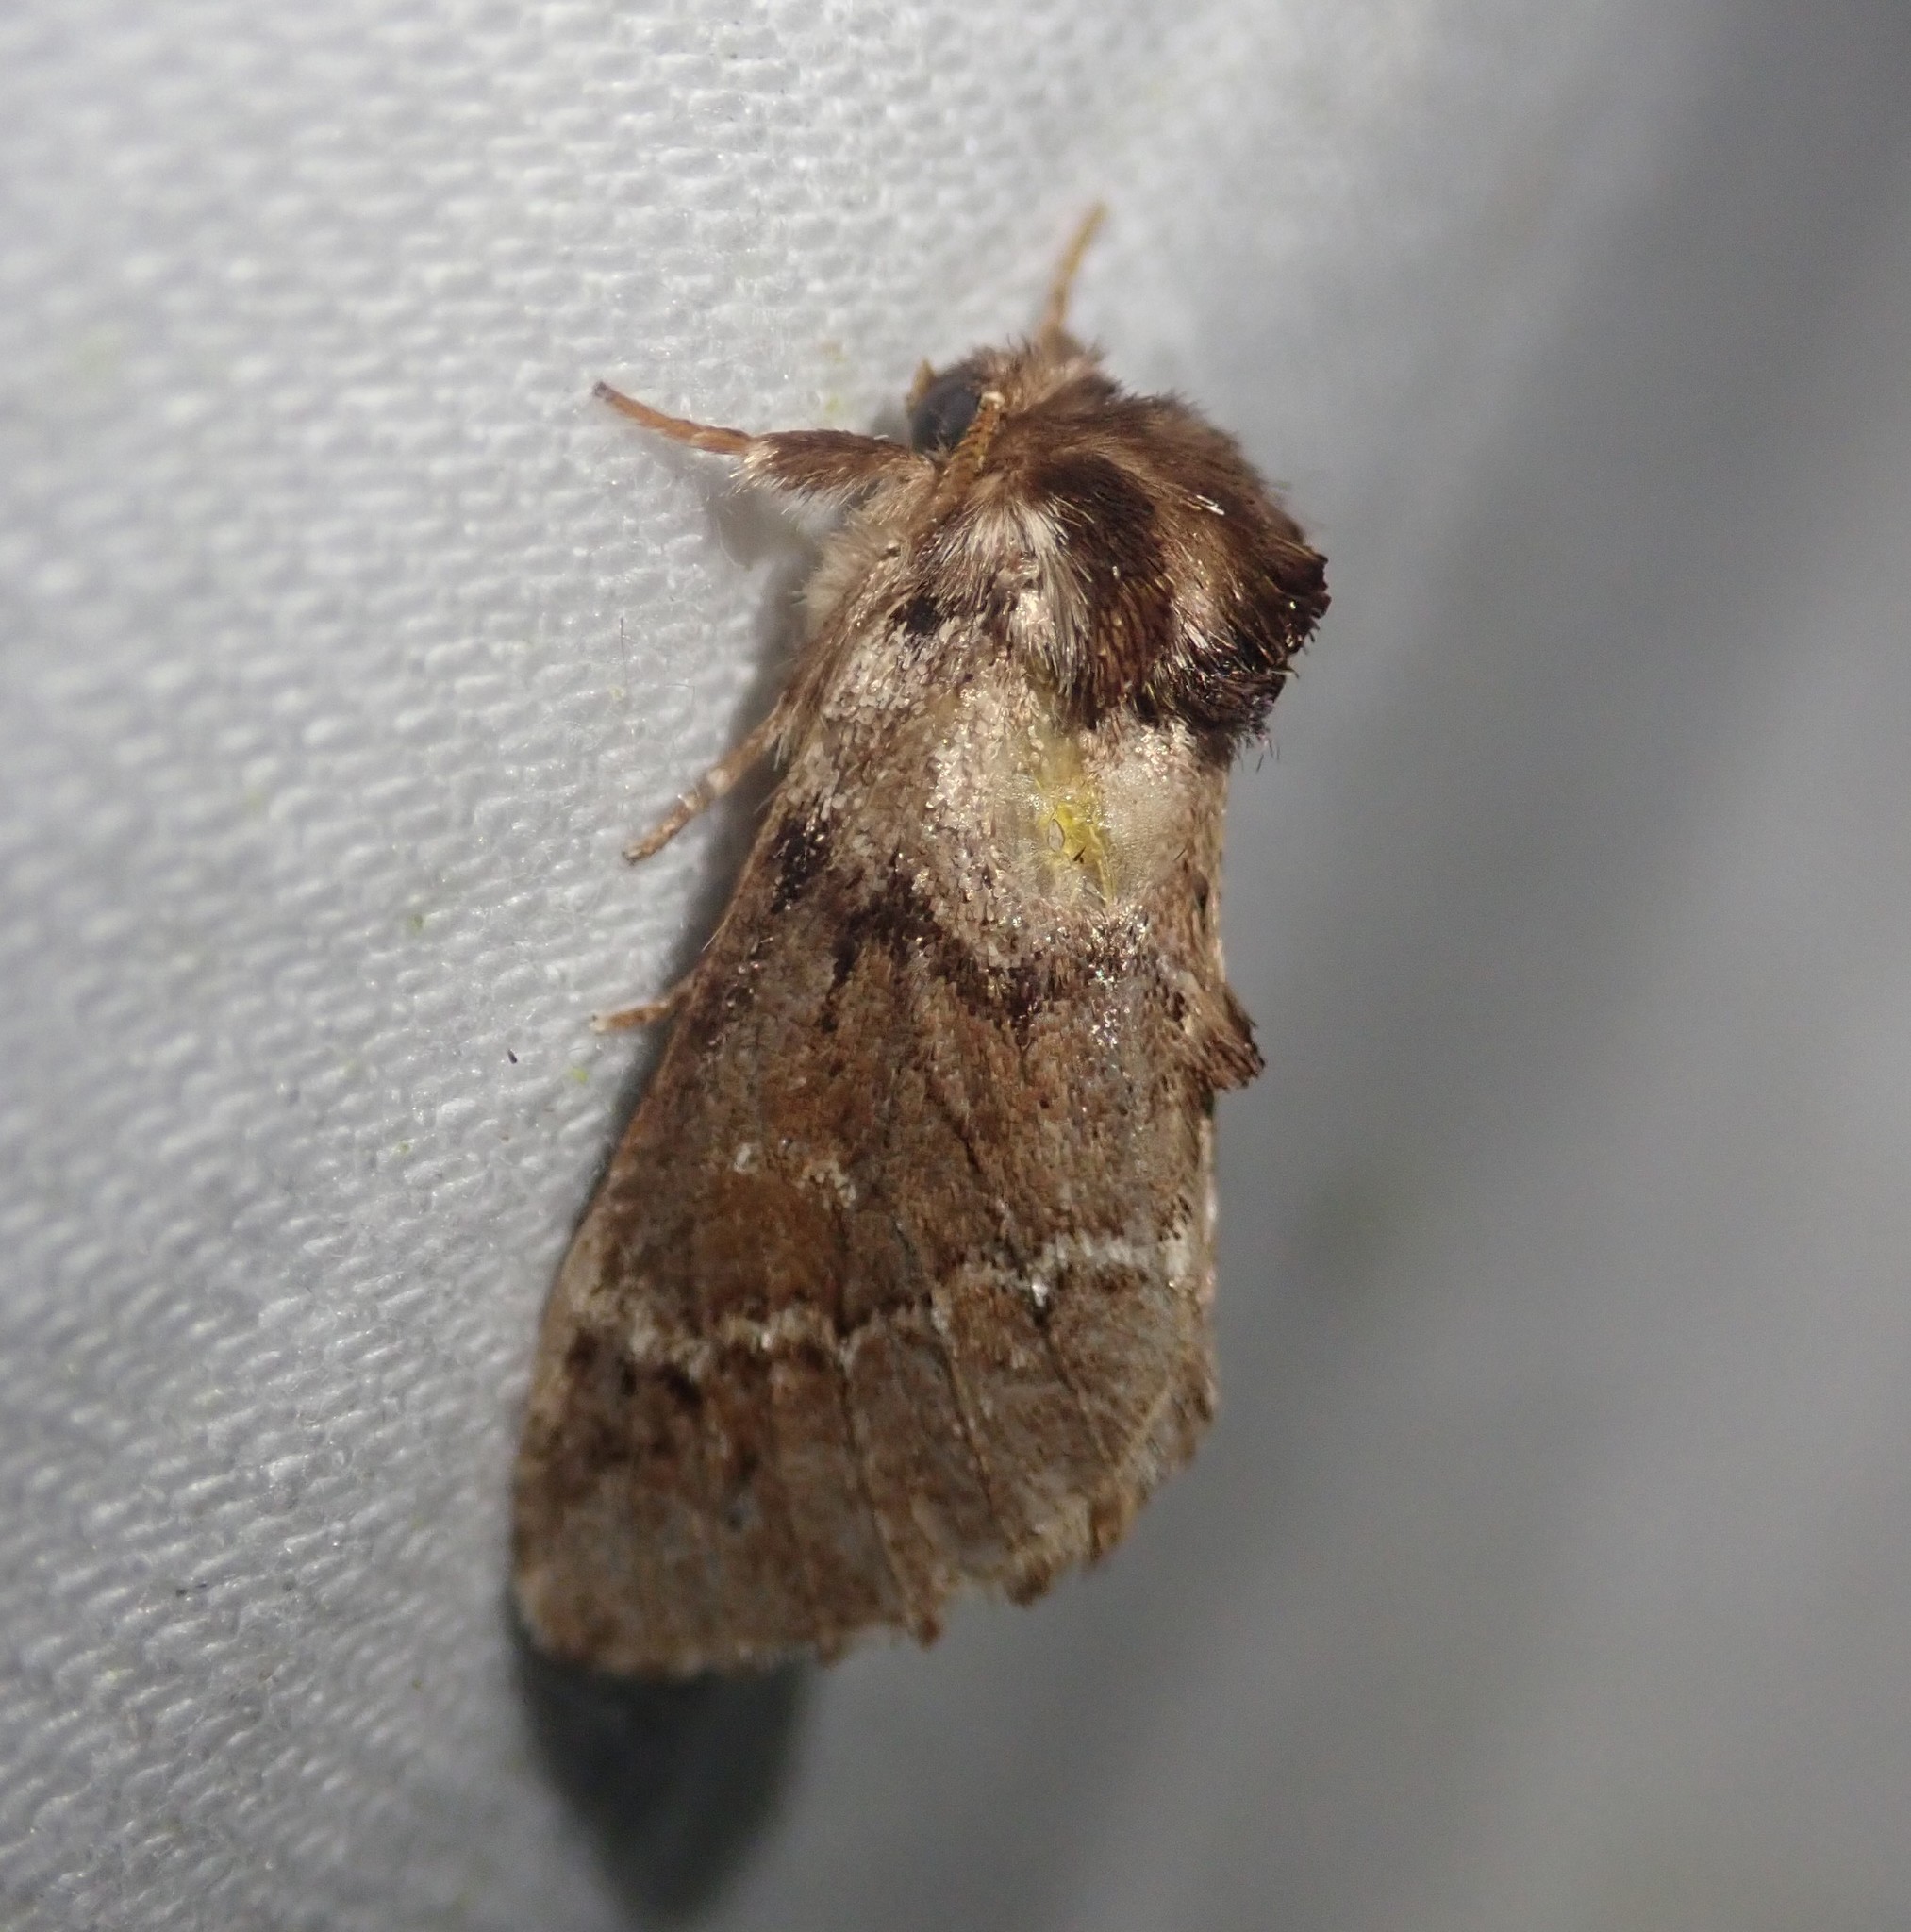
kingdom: Animalia
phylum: Arthropoda
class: Insecta
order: Lepidoptera
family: Notodontidae
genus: Drymonia
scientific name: Drymonia obliterata
